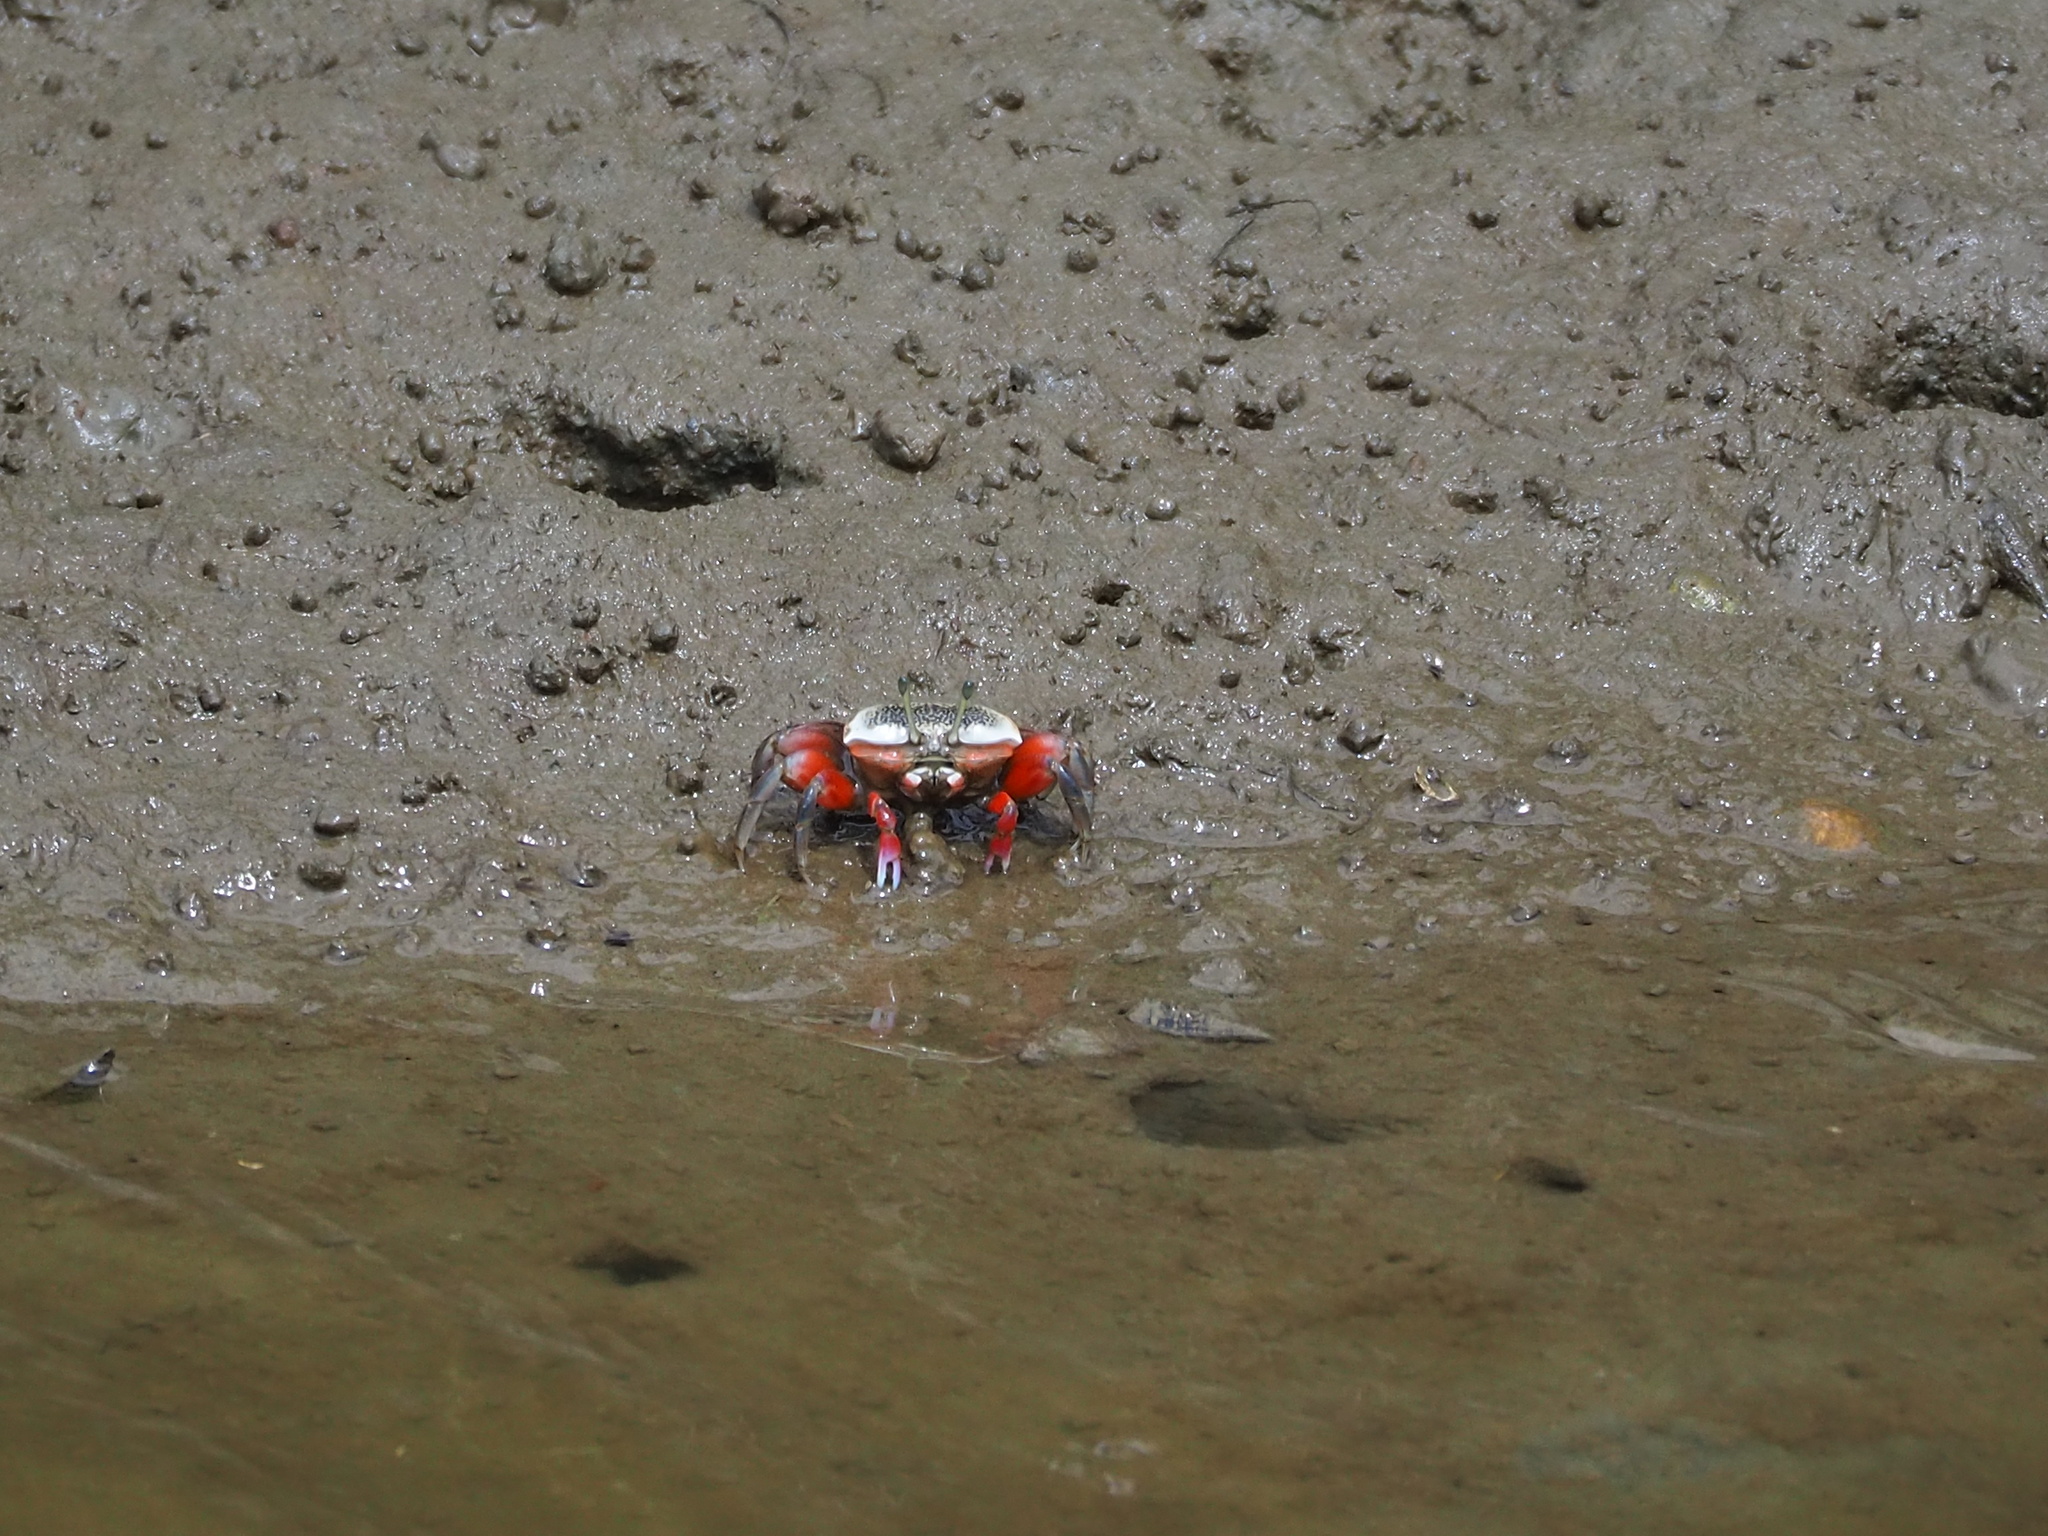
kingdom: Animalia
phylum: Arthropoda
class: Malacostraca
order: Decapoda
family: Ocypodidae
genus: Tubuca
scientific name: Tubuca arcuata
